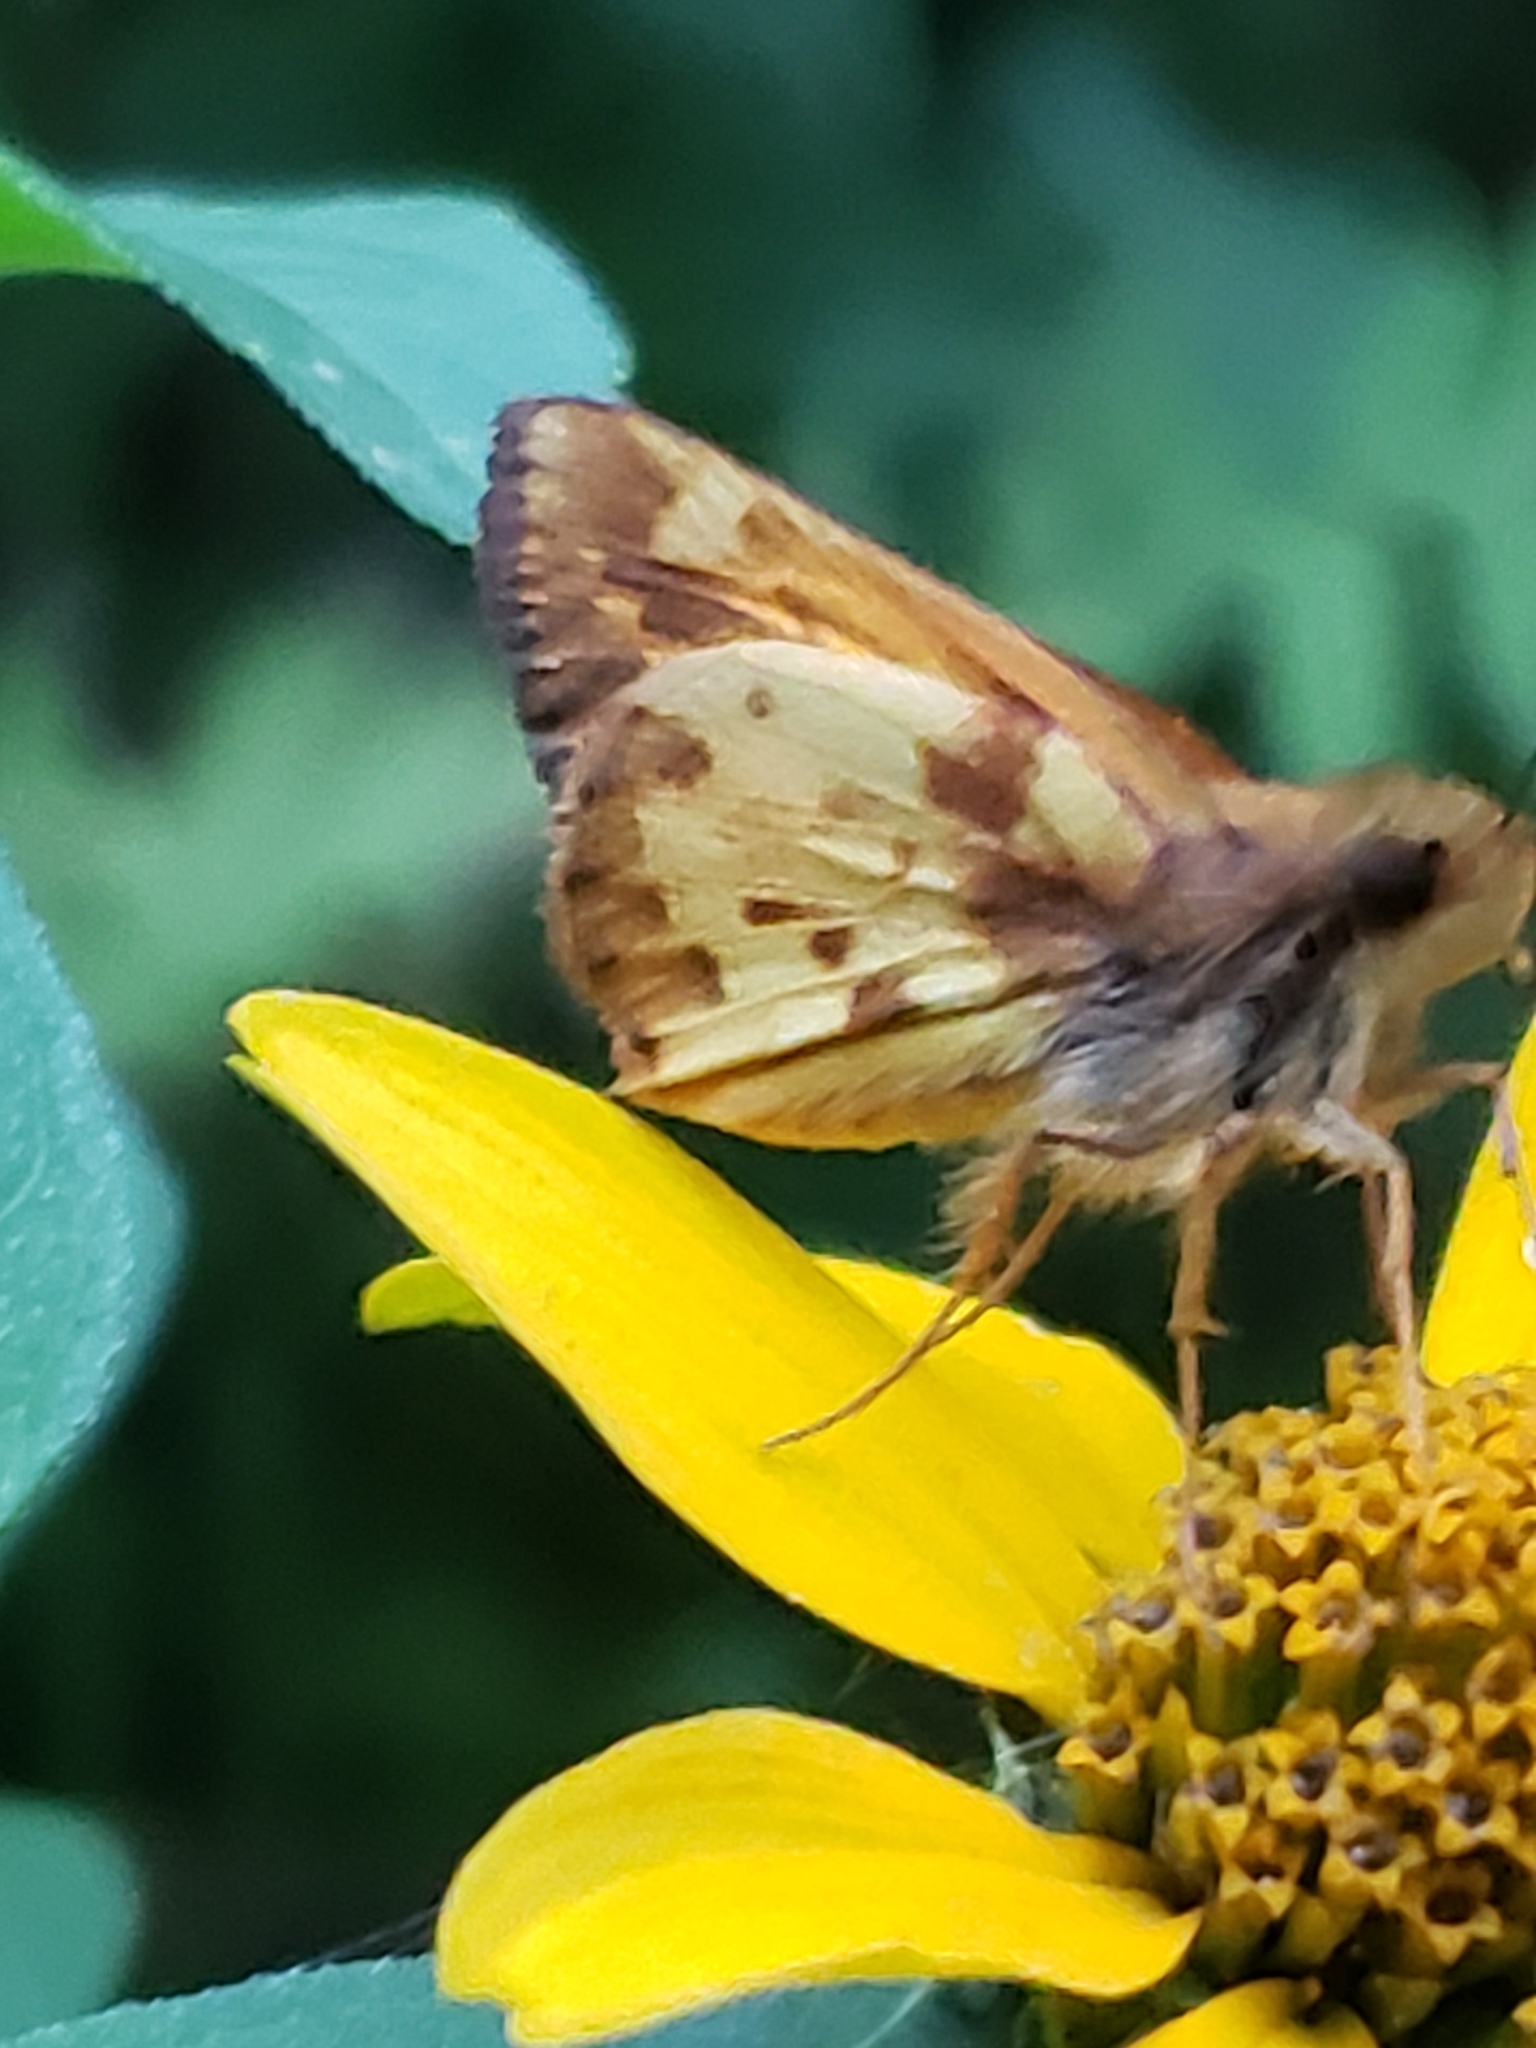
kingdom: Animalia
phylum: Arthropoda
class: Insecta
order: Lepidoptera
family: Hesperiidae
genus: Lon
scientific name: Lon zabulon
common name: Zabulon skipper
